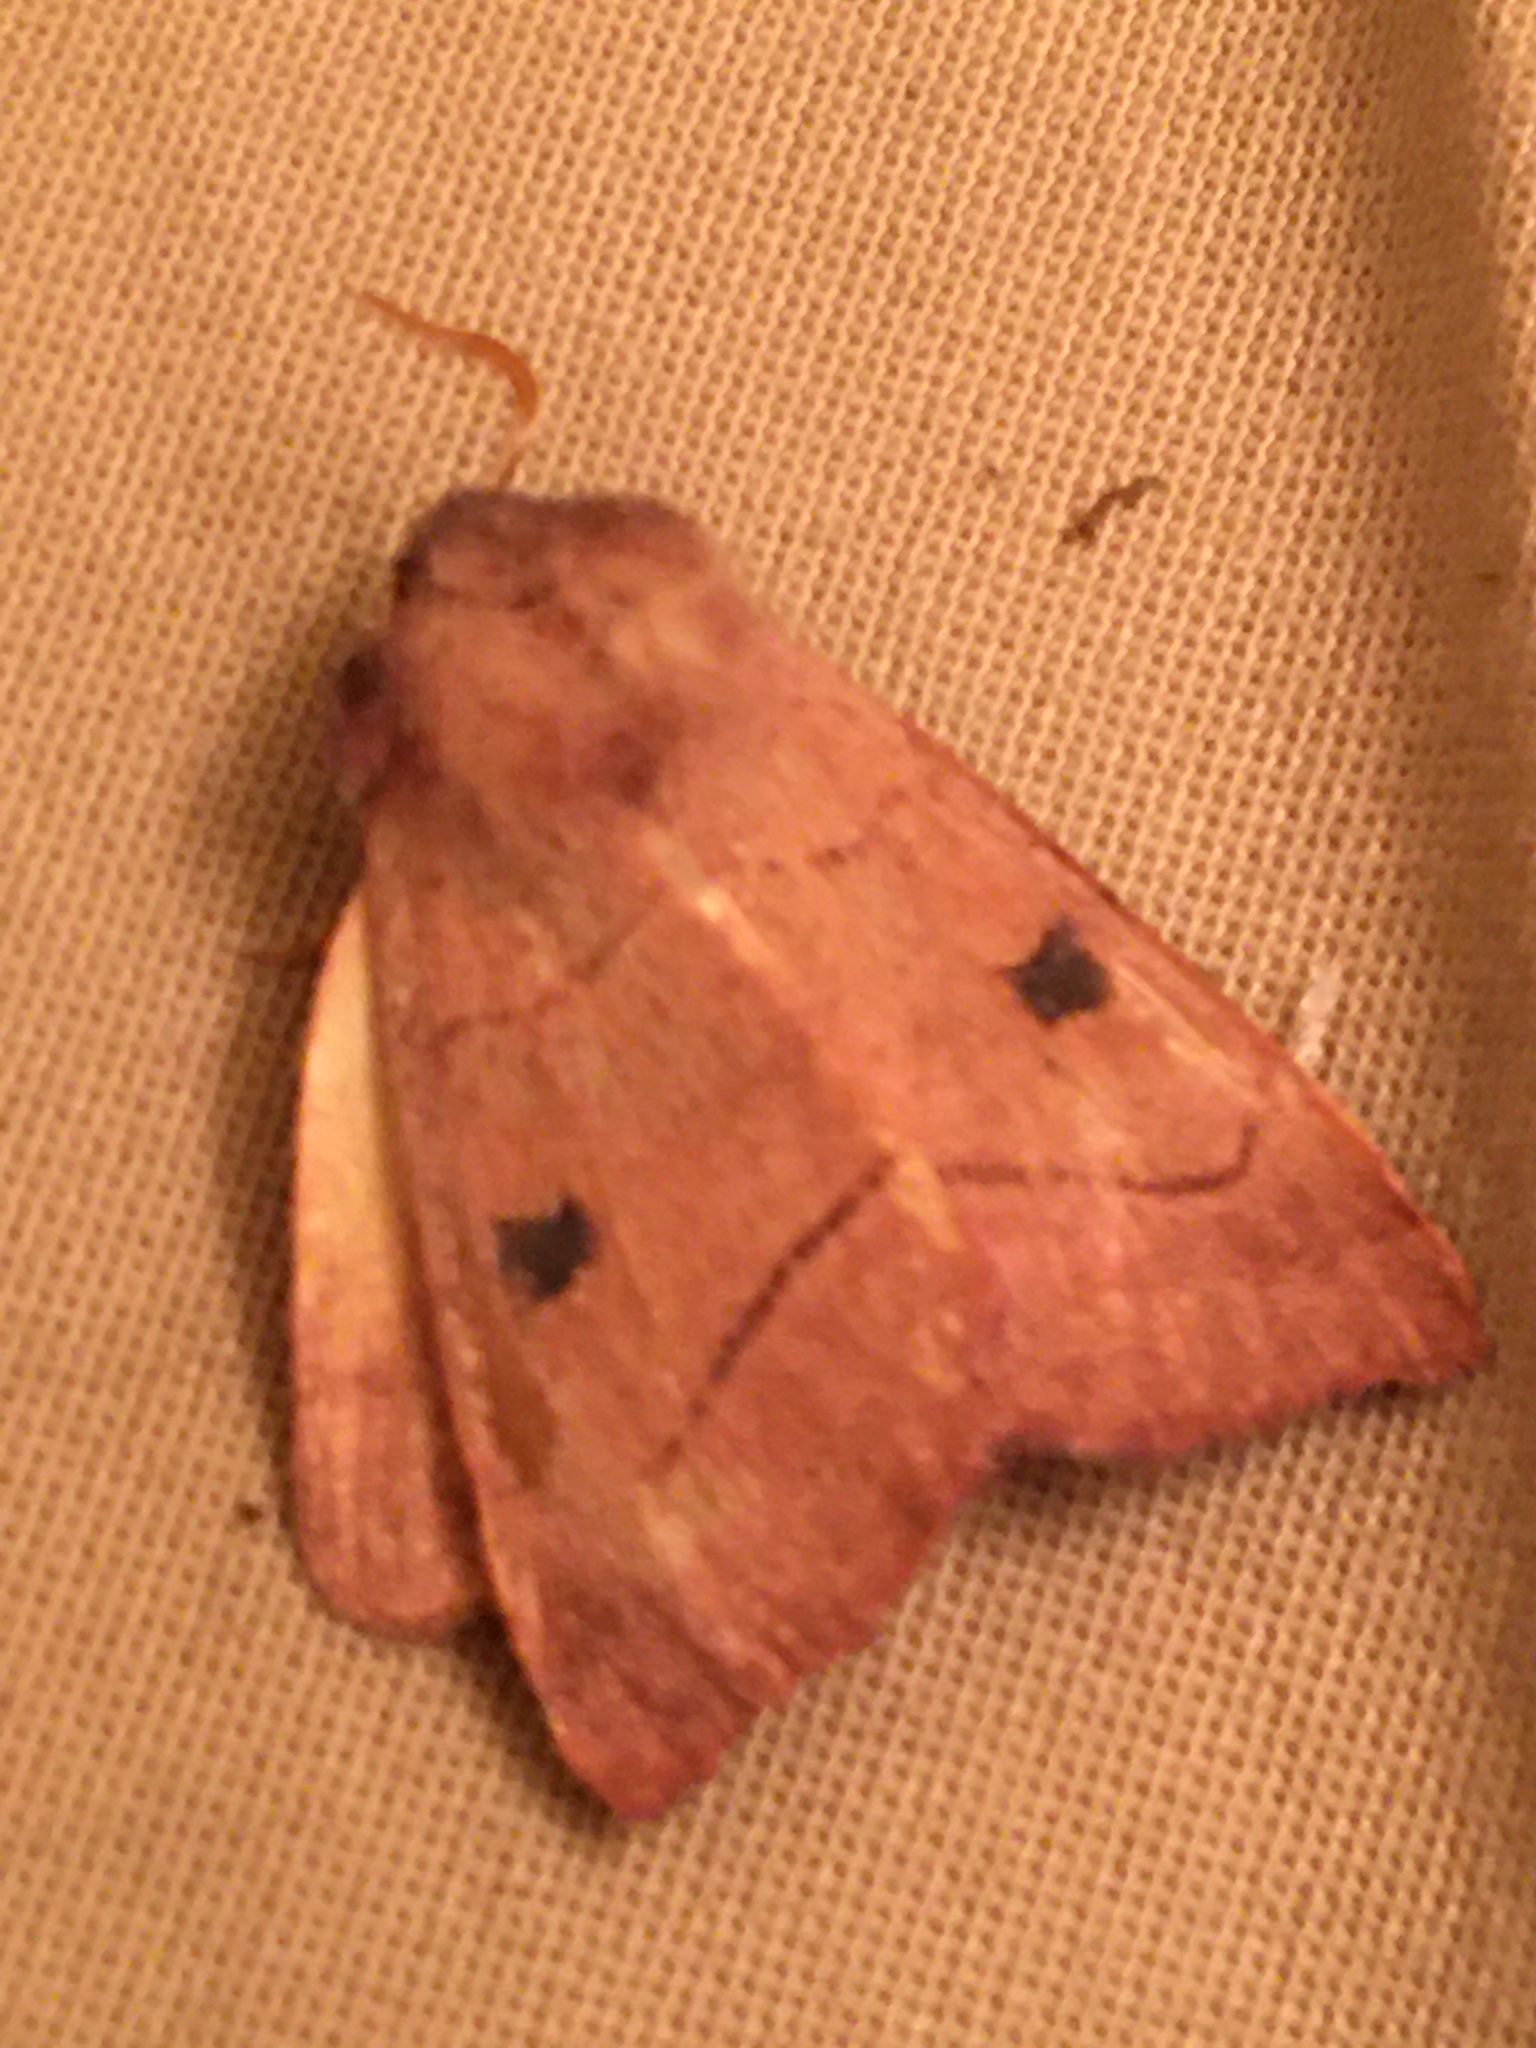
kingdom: Animalia
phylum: Arthropoda
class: Insecta
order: Lepidoptera
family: Noctuidae
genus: Choephora
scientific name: Choephora fungorum
